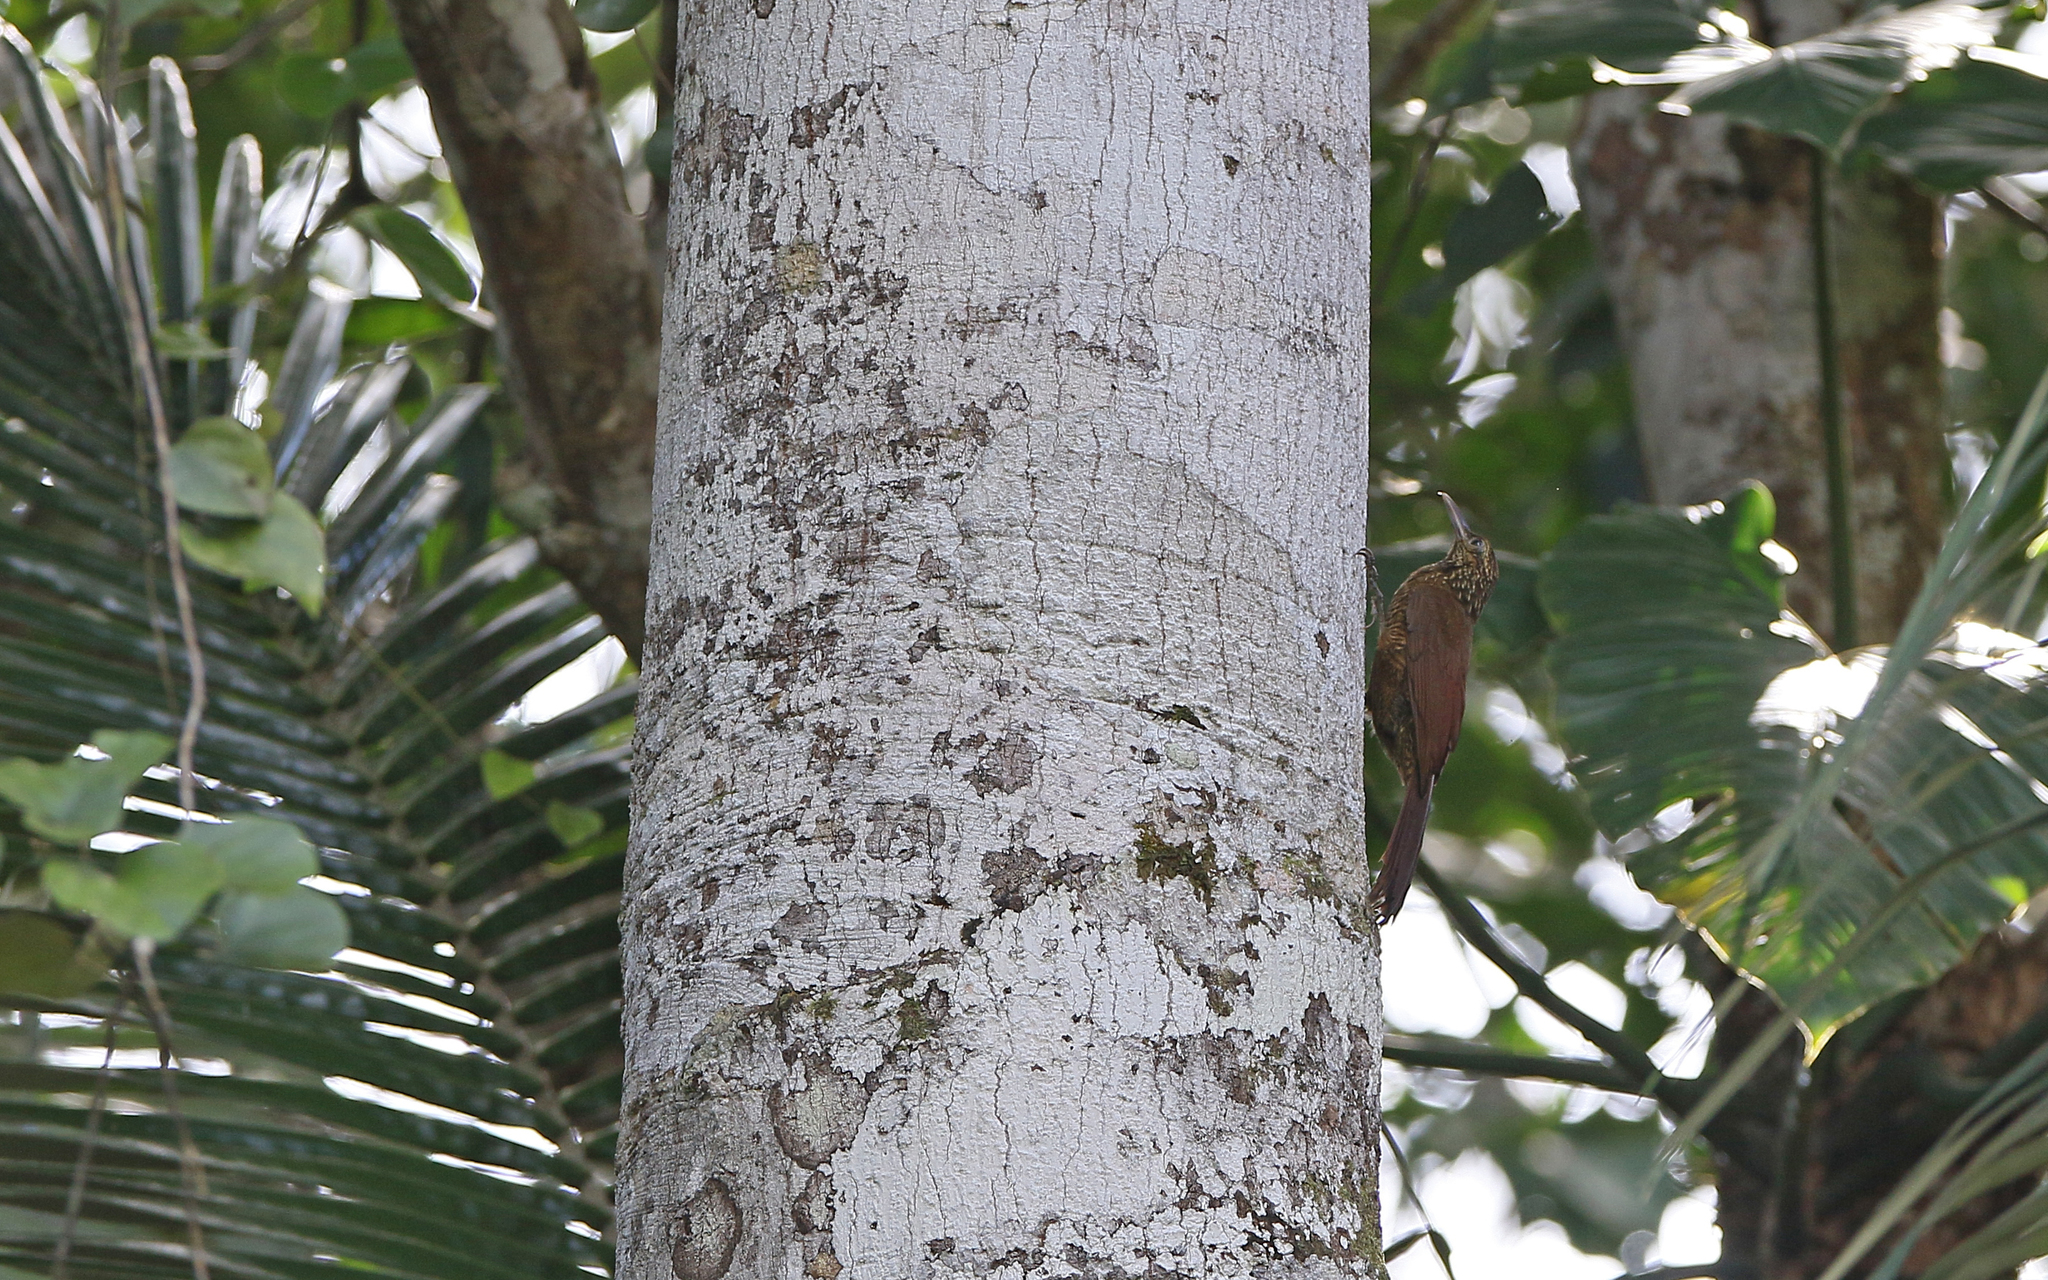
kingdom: Animalia
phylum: Chordata
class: Aves
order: Passeriformes
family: Furnariidae
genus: Dendrocolaptes
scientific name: Dendrocolaptes picumnus
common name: Black-banded woodcreeper
